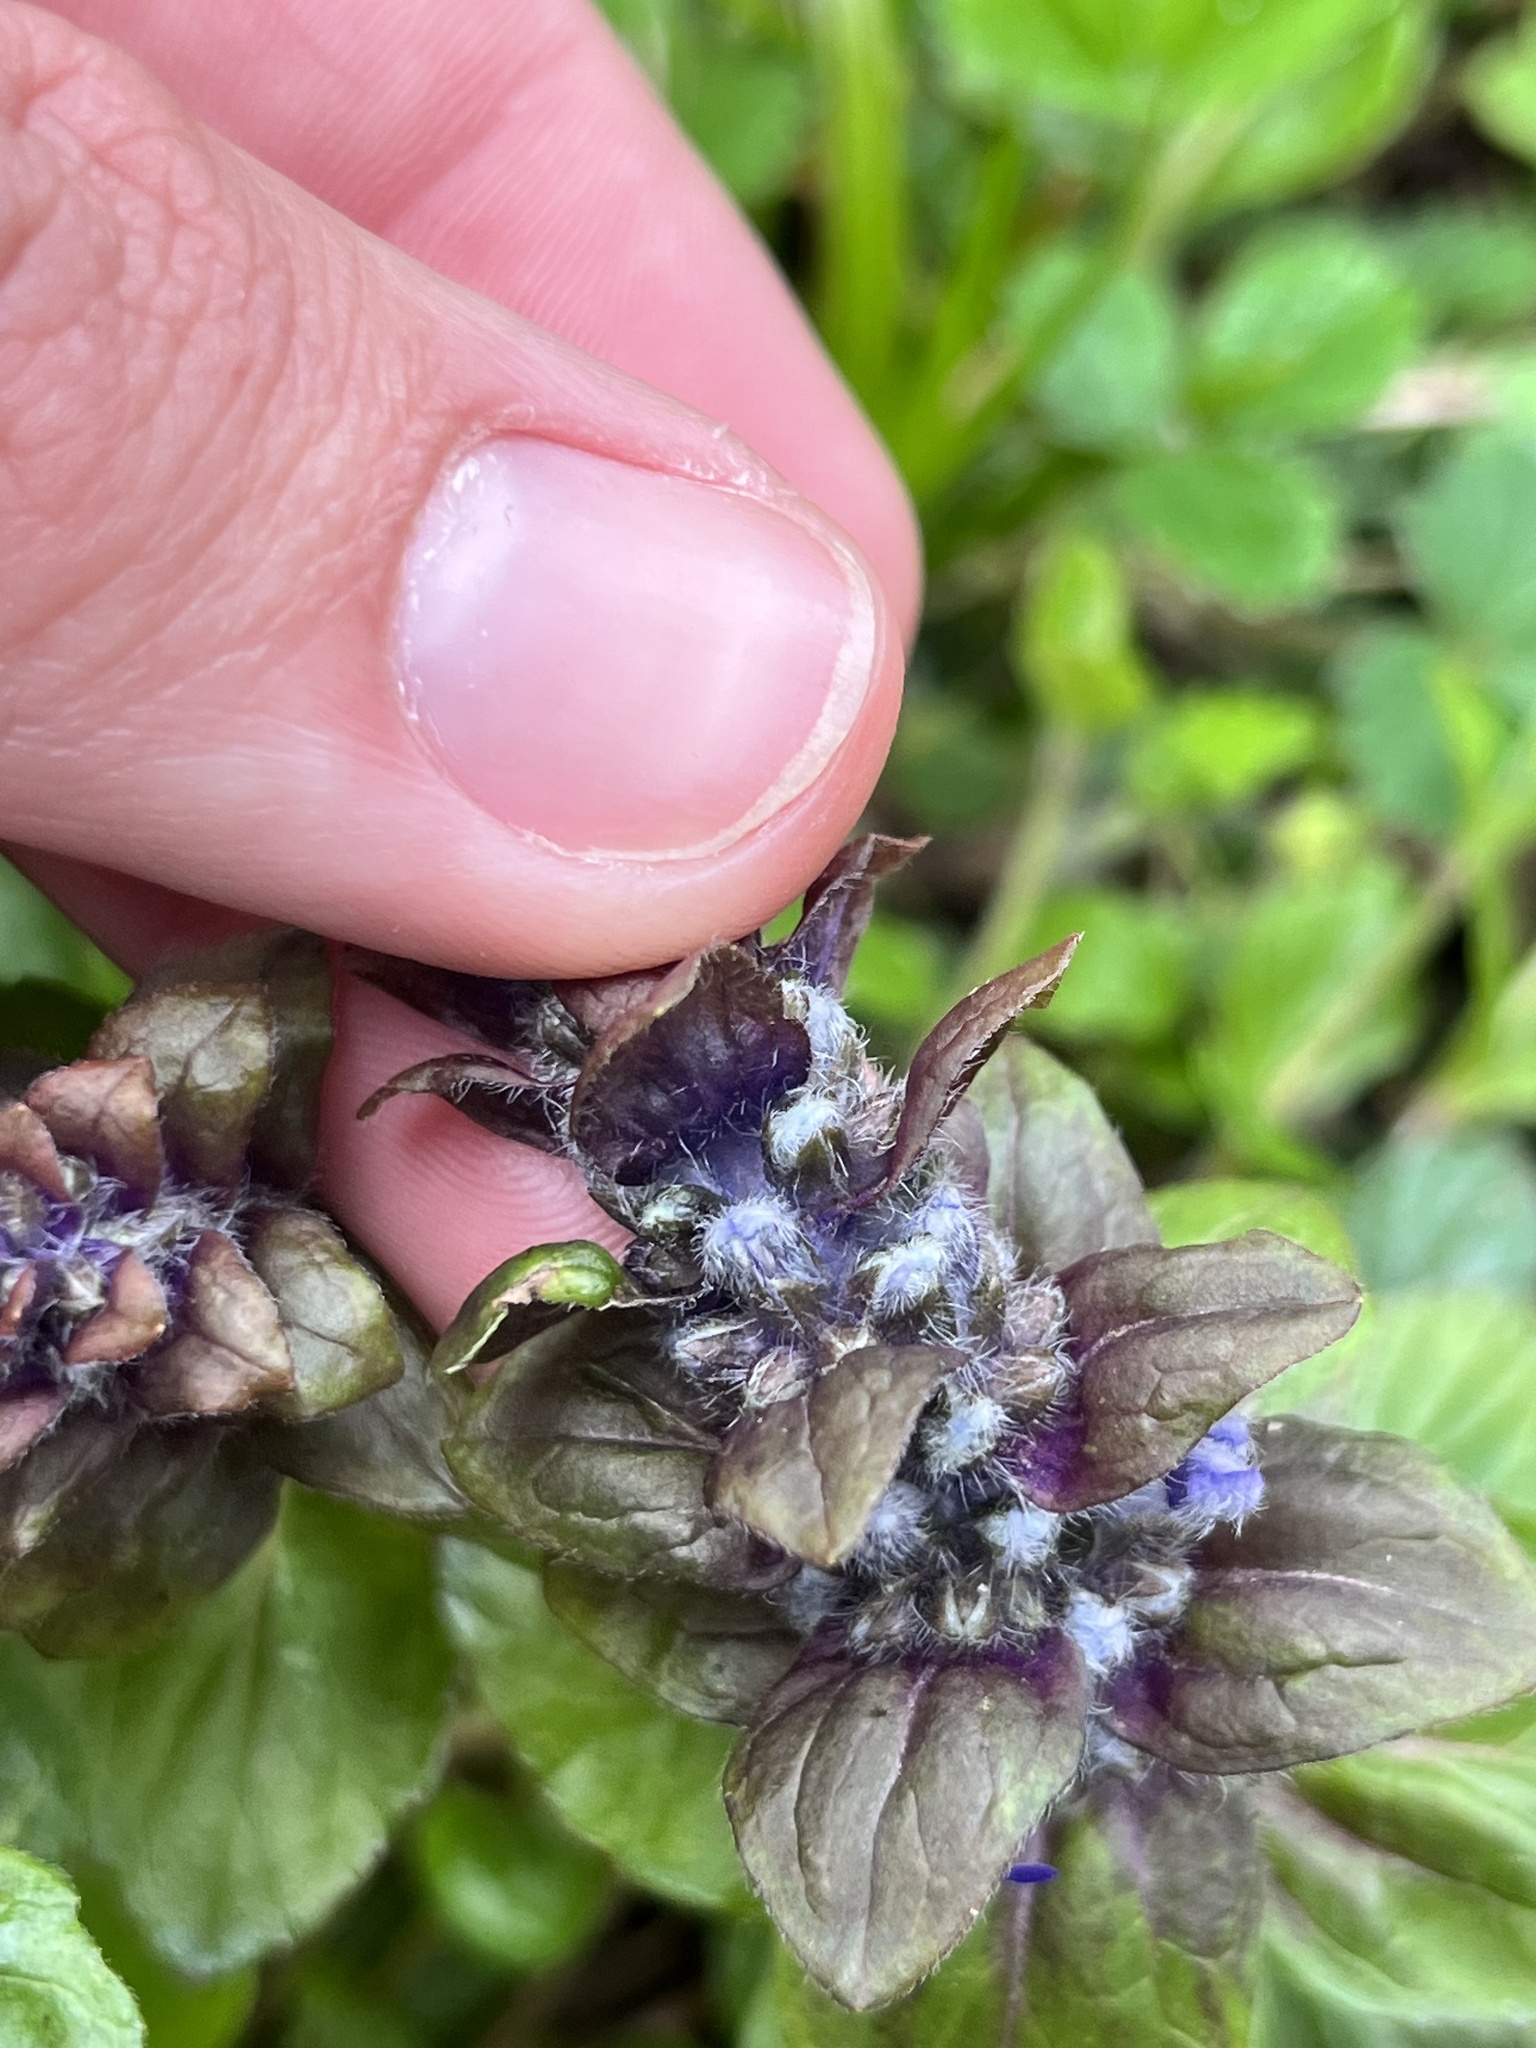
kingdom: Plantae
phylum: Tracheophyta
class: Magnoliopsida
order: Lamiales
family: Lamiaceae
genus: Ajuga
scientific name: Ajuga reptans
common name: Bugle
